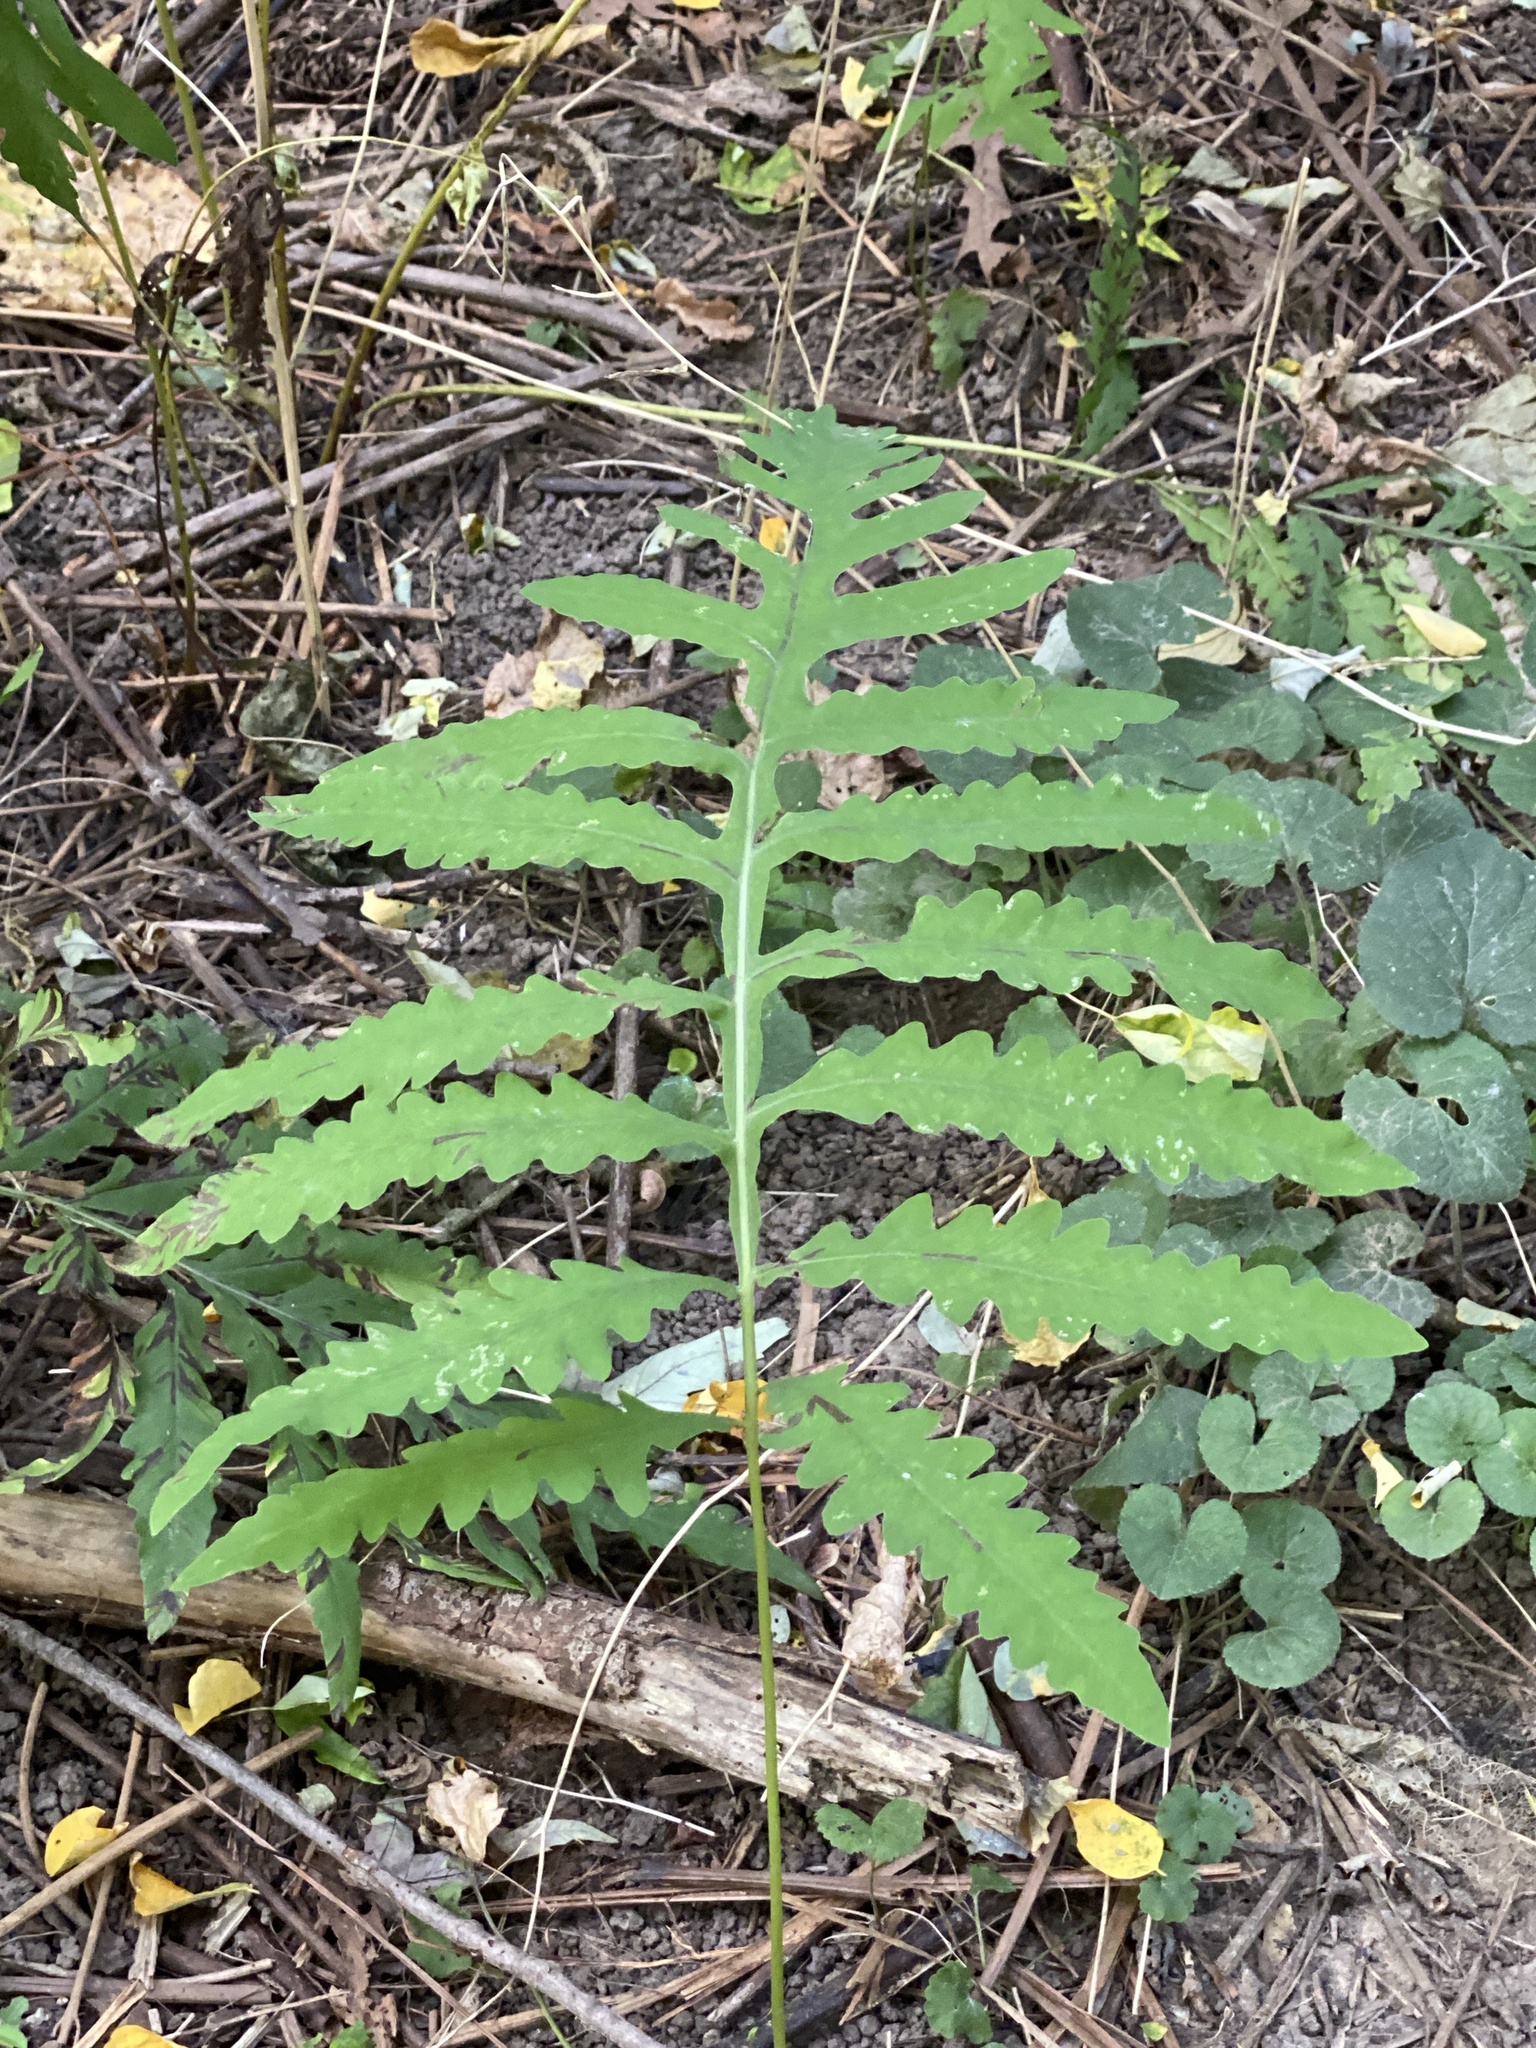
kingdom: Plantae
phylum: Tracheophyta
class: Polypodiopsida
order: Polypodiales
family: Onocleaceae
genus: Onoclea
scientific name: Onoclea sensibilis
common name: Sensitive fern
